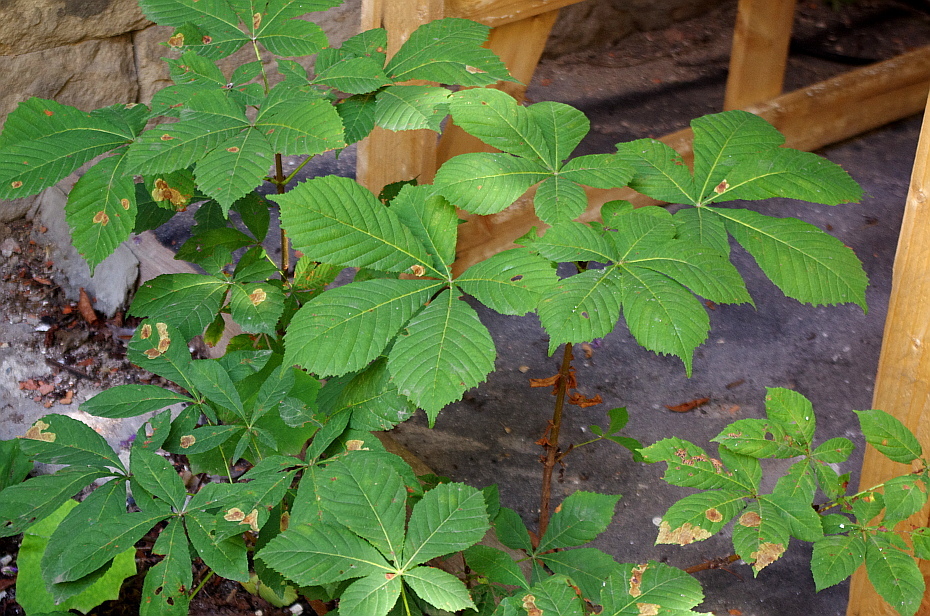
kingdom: Plantae
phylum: Tracheophyta
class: Magnoliopsida
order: Sapindales
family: Sapindaceae
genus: Aesculus
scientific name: Aesculus hippocastanum
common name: Horse-chestnut
